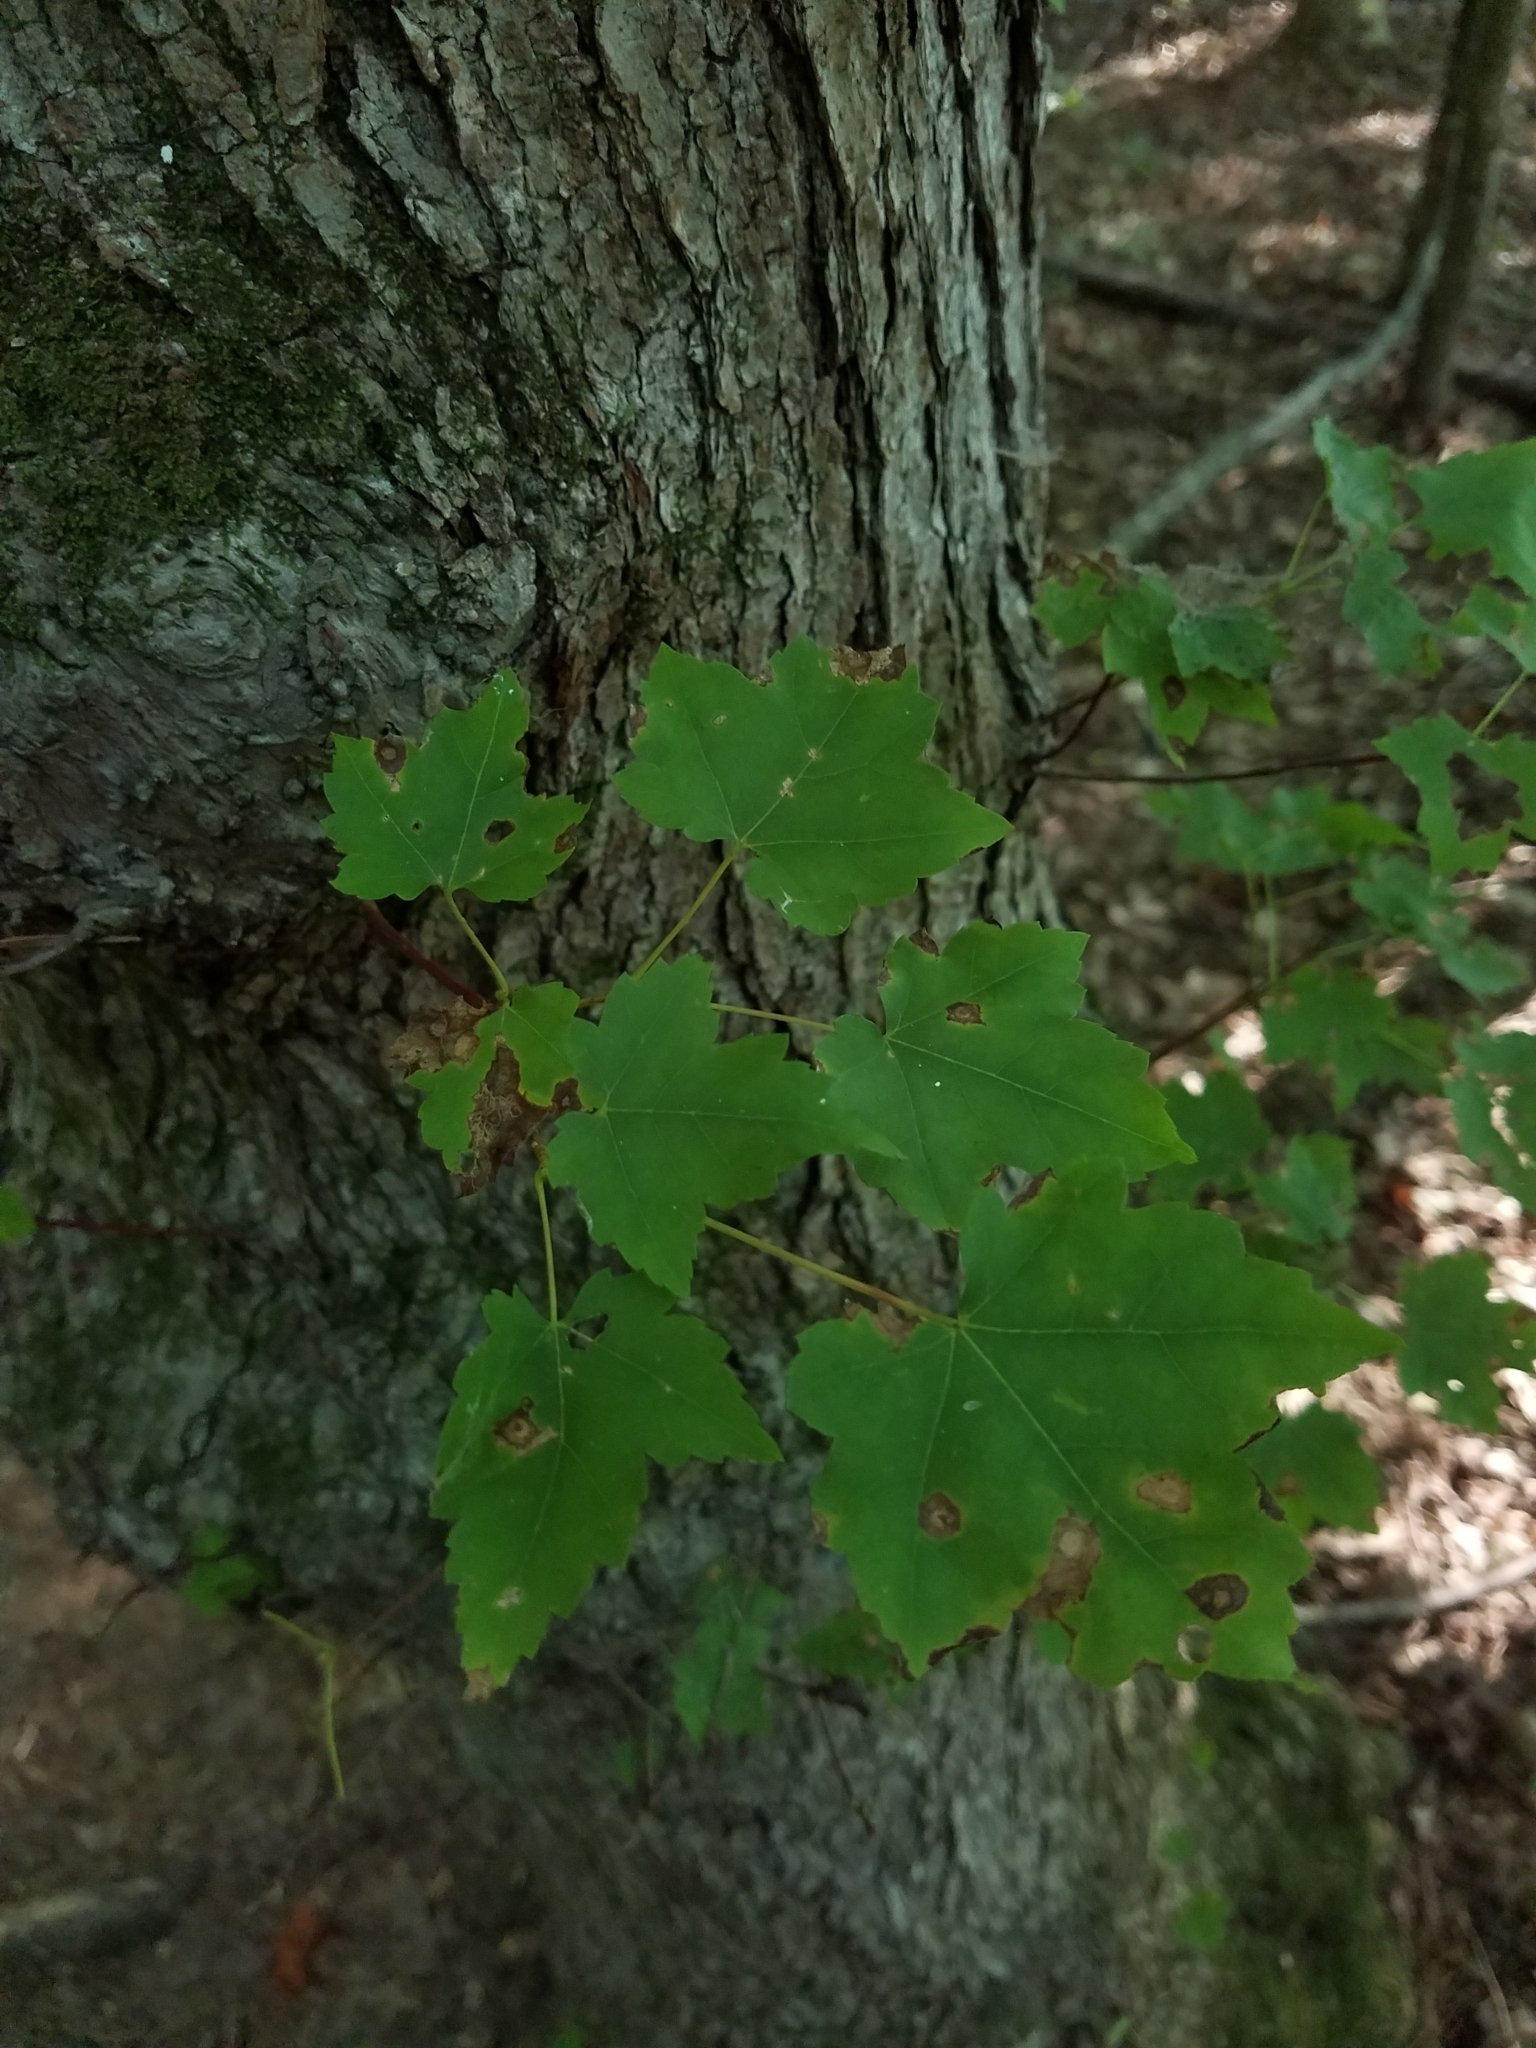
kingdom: Plantae
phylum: Tracheophyta
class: Magnoliopsida
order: Sapindales
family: Sapindaceae
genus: Acer
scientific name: Acer rubrum
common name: Red maple
